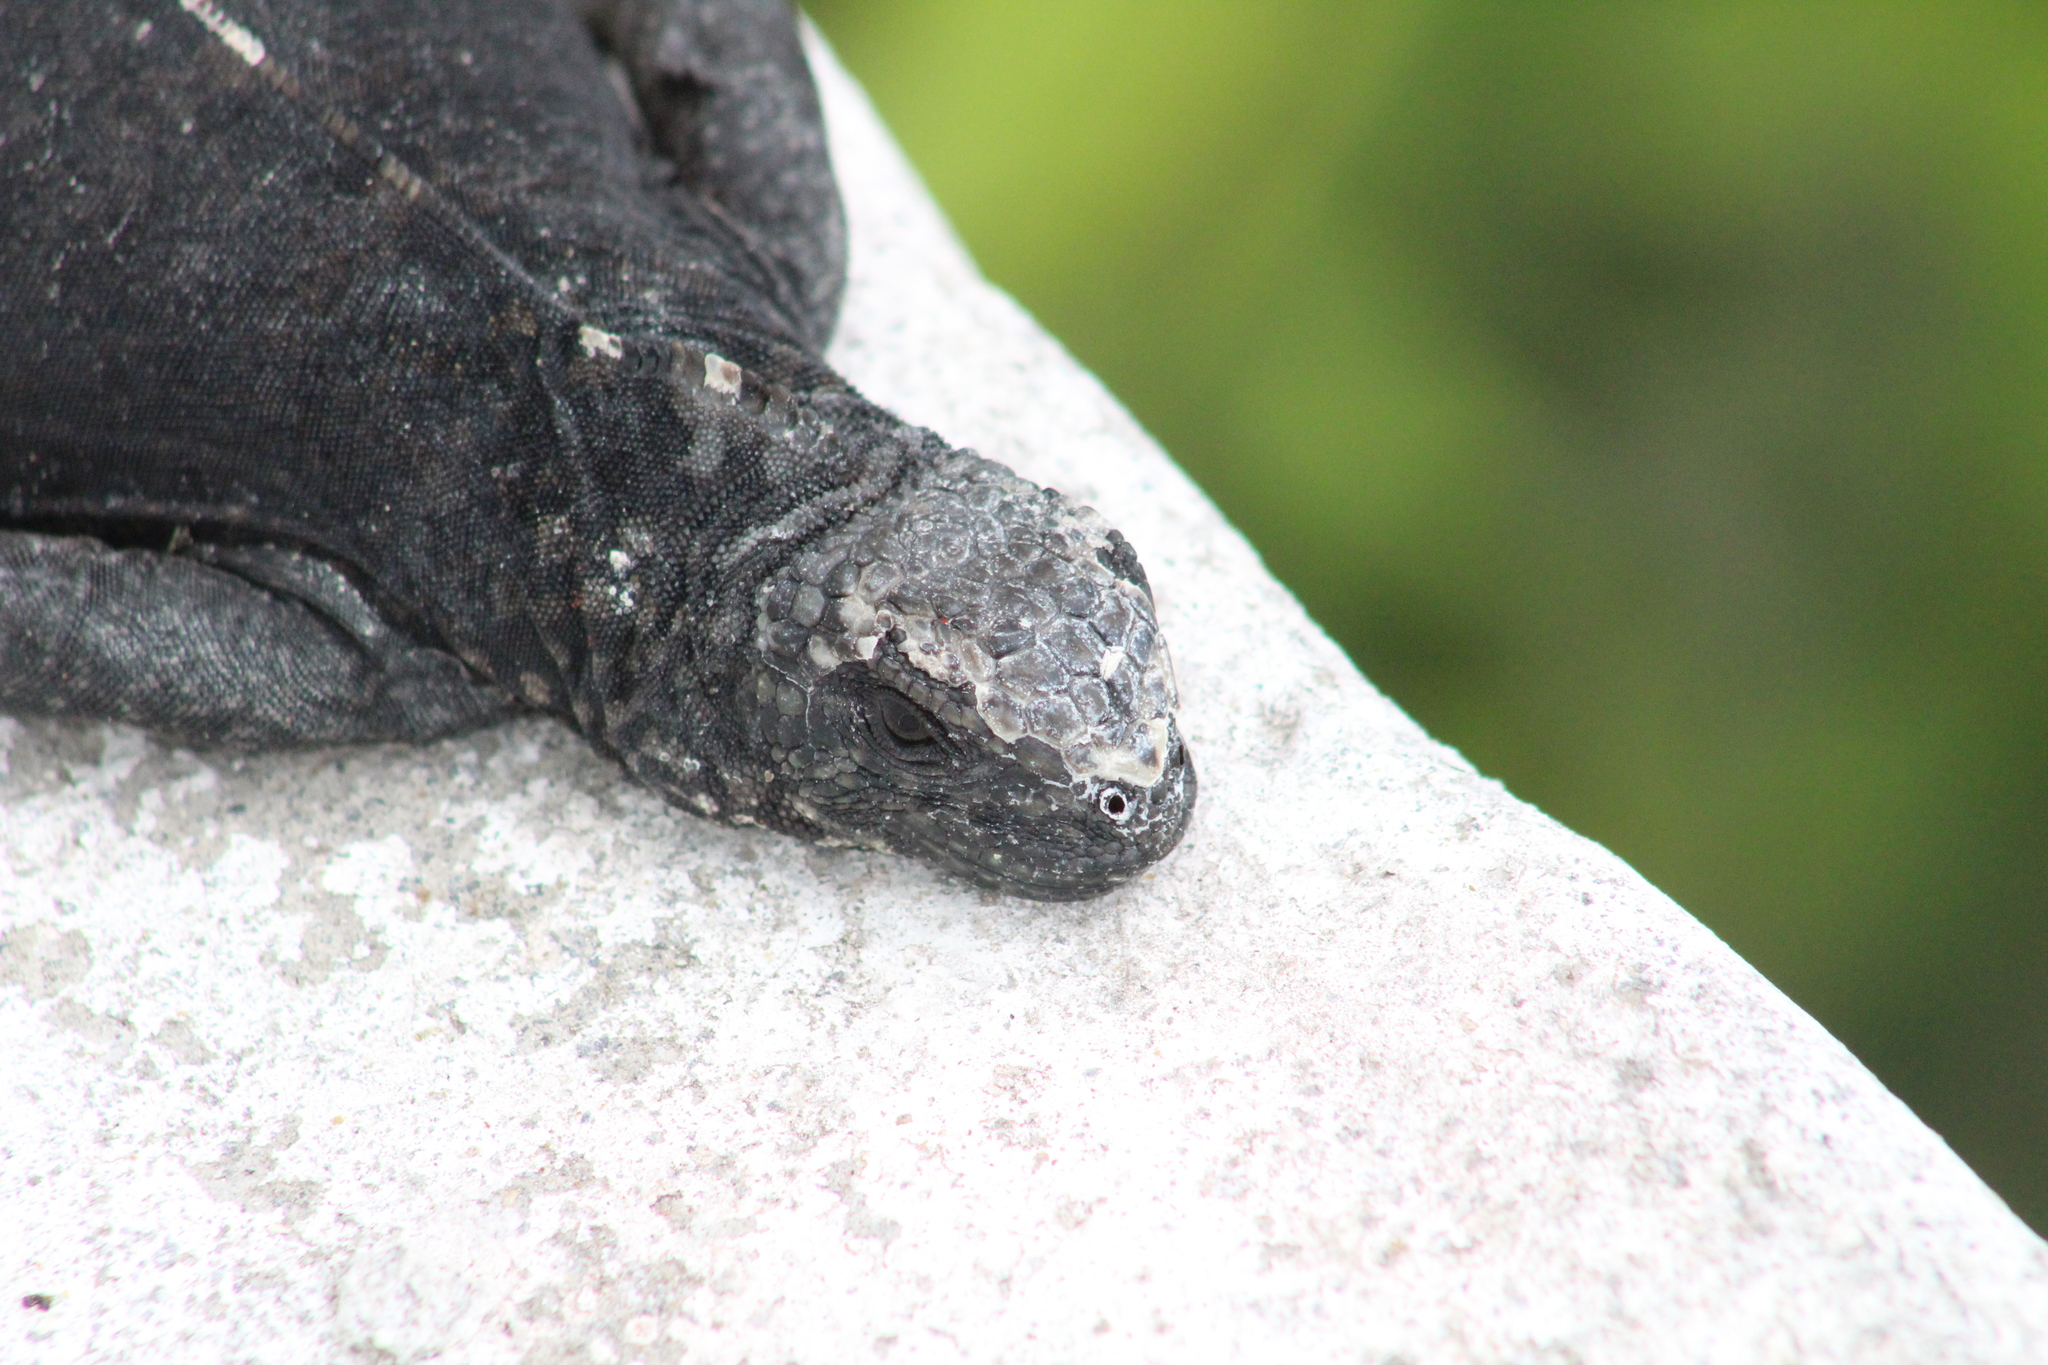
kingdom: Animalia
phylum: Chordata
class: Squamata
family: Iguanidae
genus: Amblyrhynchus
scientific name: Amblyrhynchus cristatus
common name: Marine iguana
